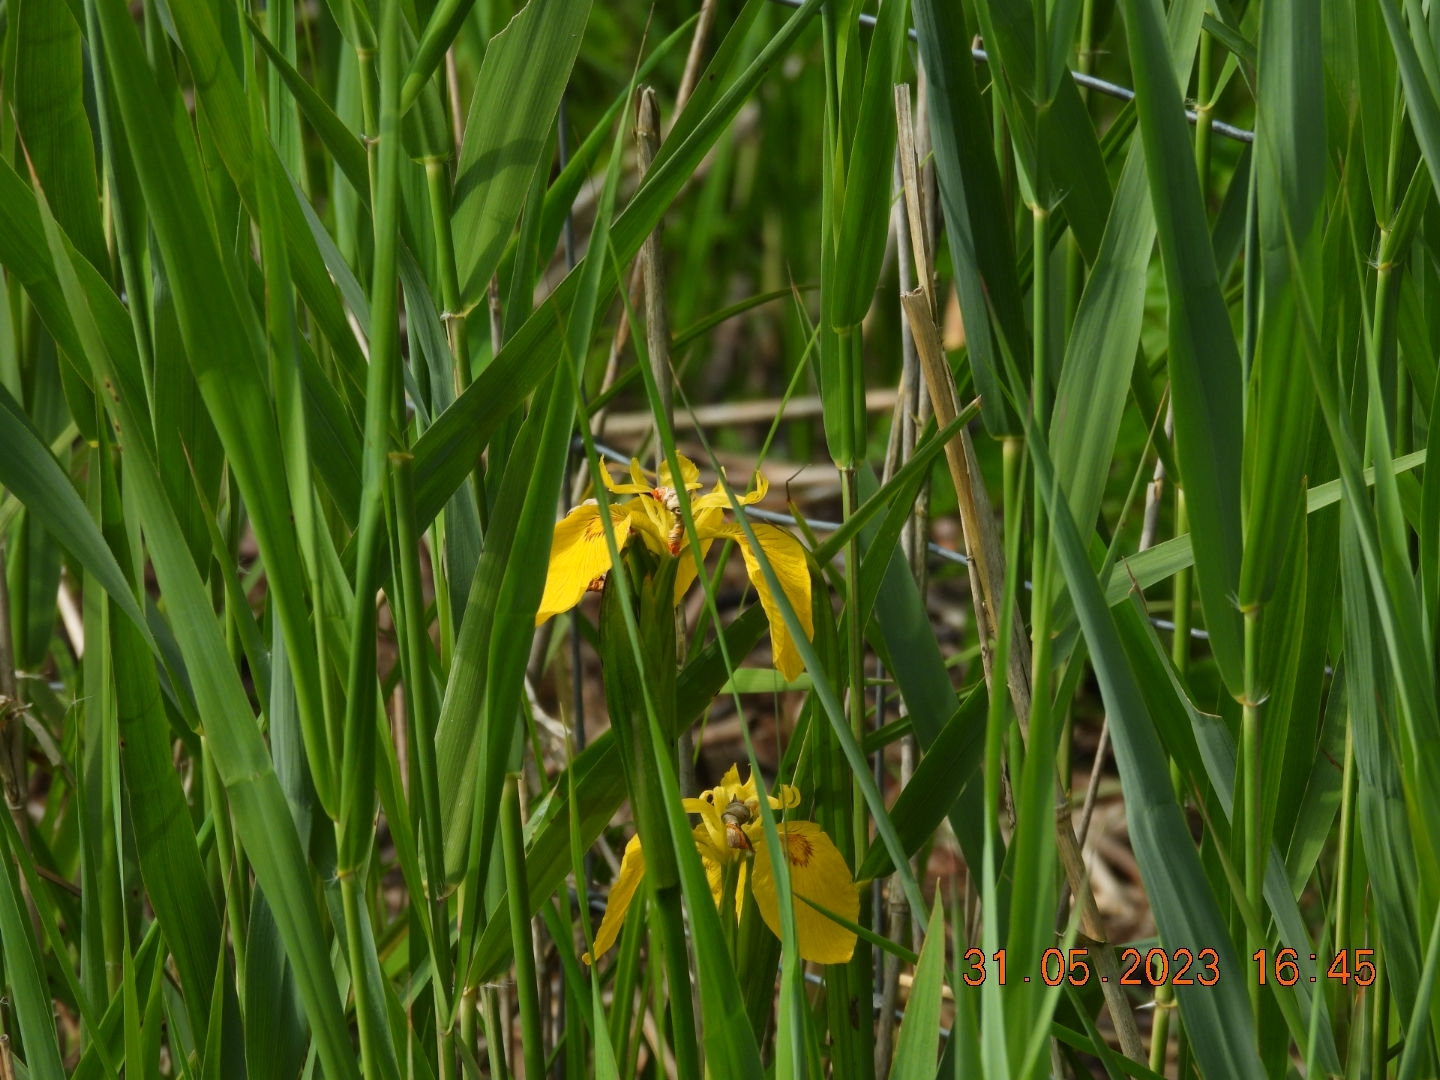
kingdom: Plantae
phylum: Tracheophyta
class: Liliopsida
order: Asparagales
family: Iridaceae
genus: Iris
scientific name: Iris pseudacorus
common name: Yellow flag
